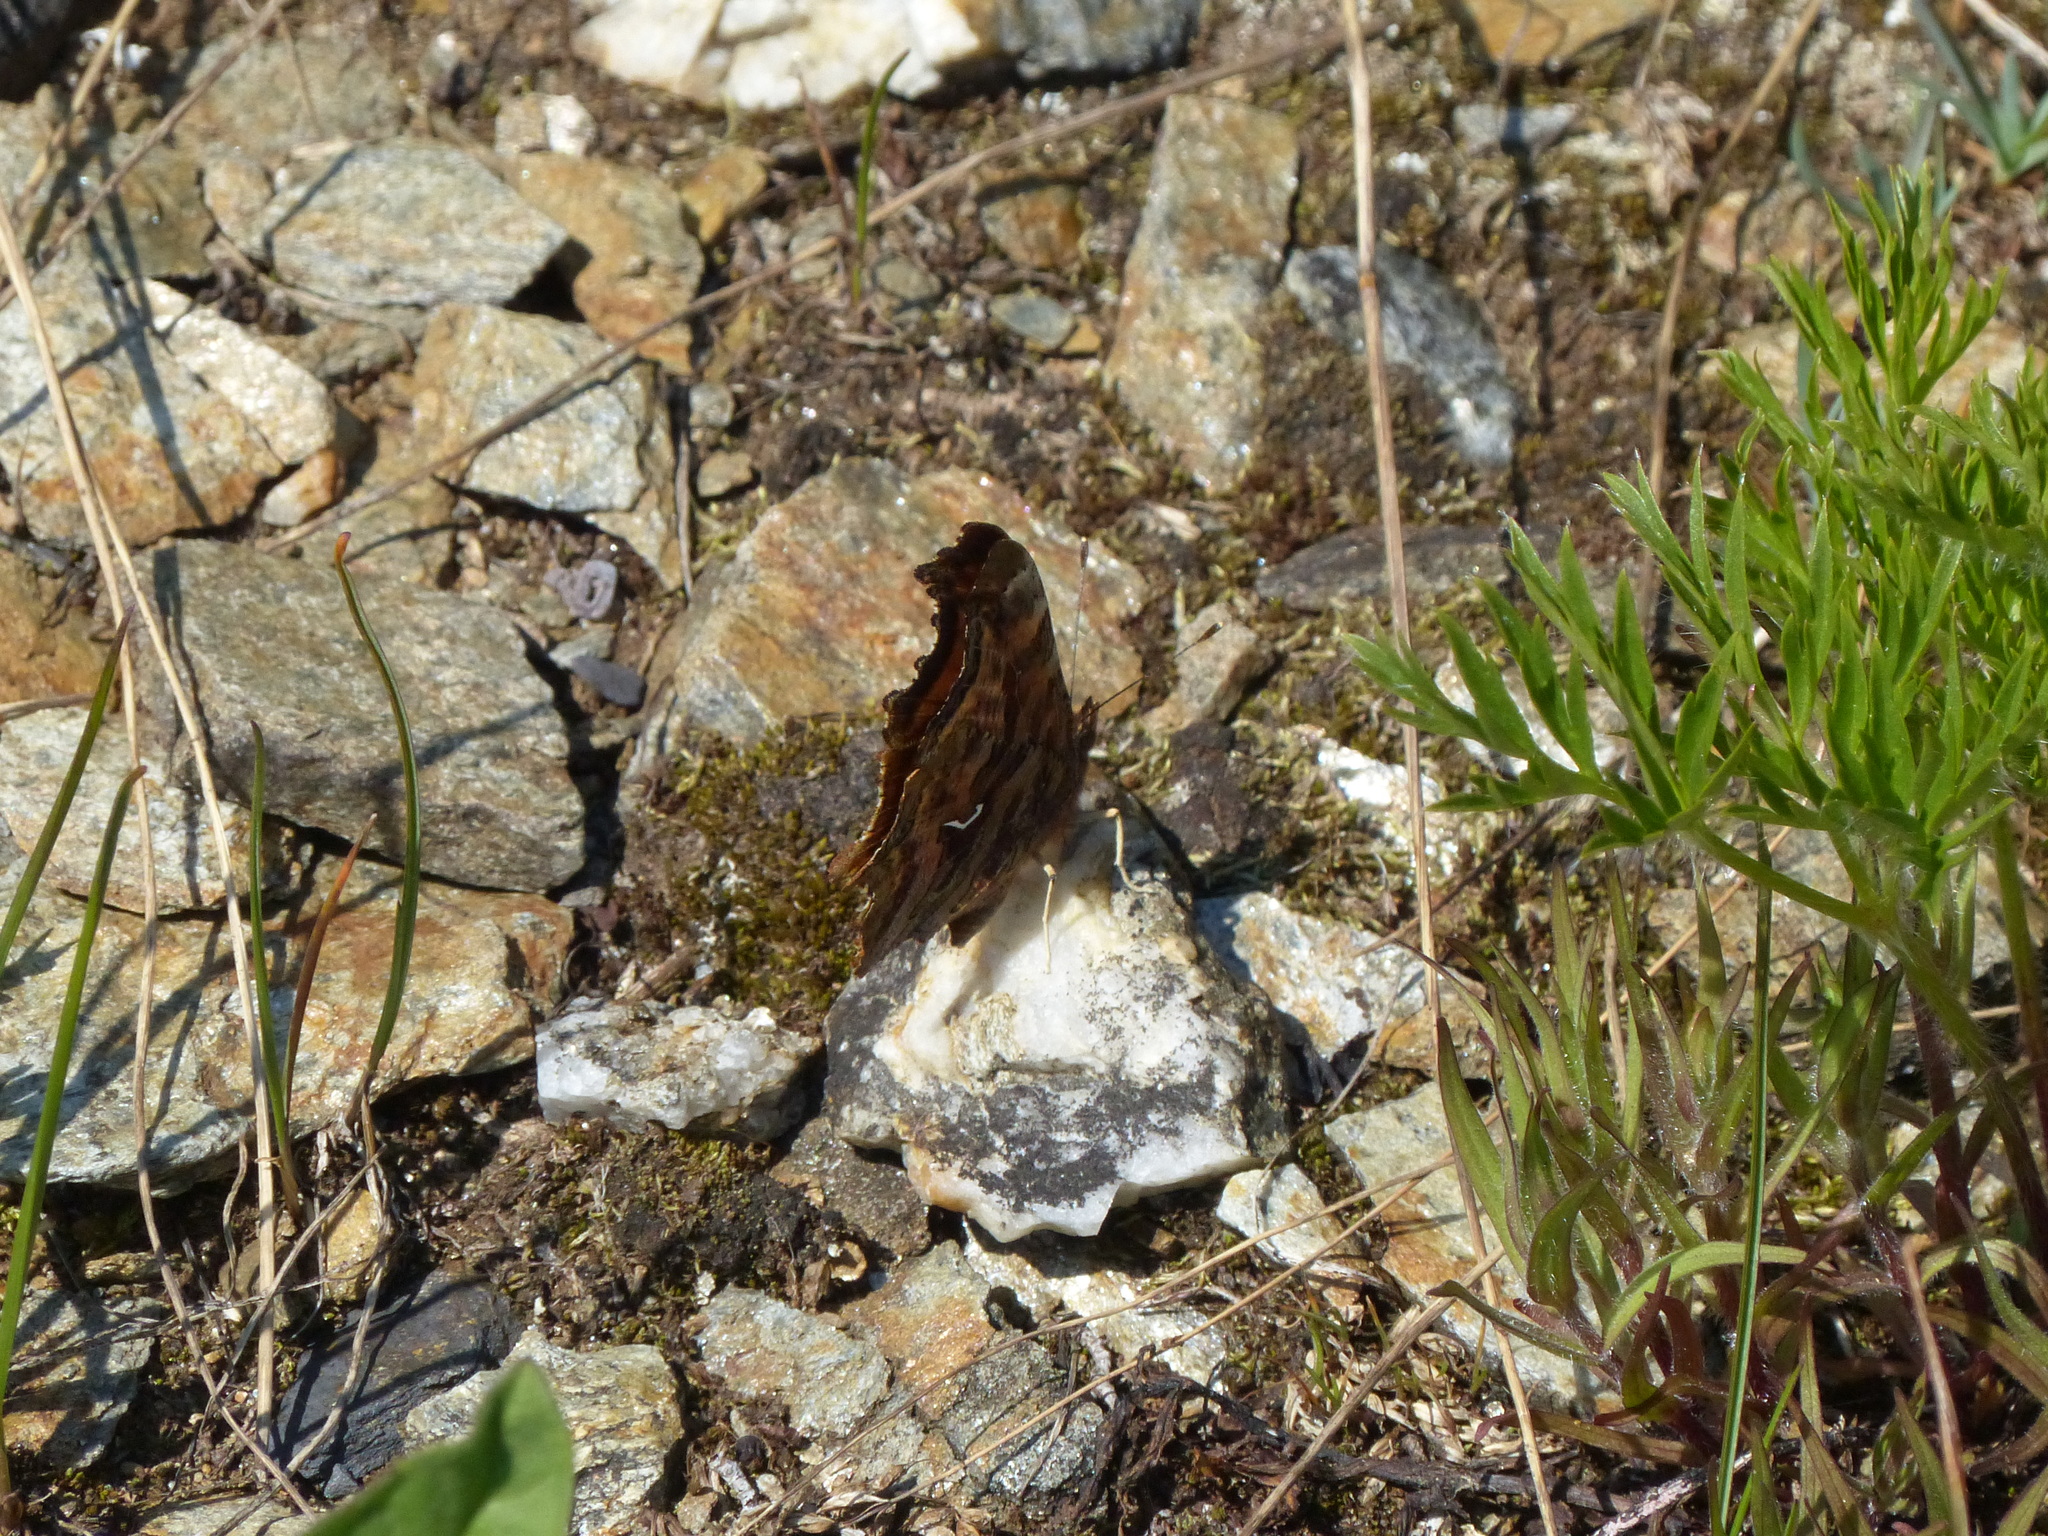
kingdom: Animalia
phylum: Arthropoda
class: Insecta
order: Lepidoptera
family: Nymphalidae
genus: Polygonia
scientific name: Polygonia satyrus
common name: Satyr angle wing
